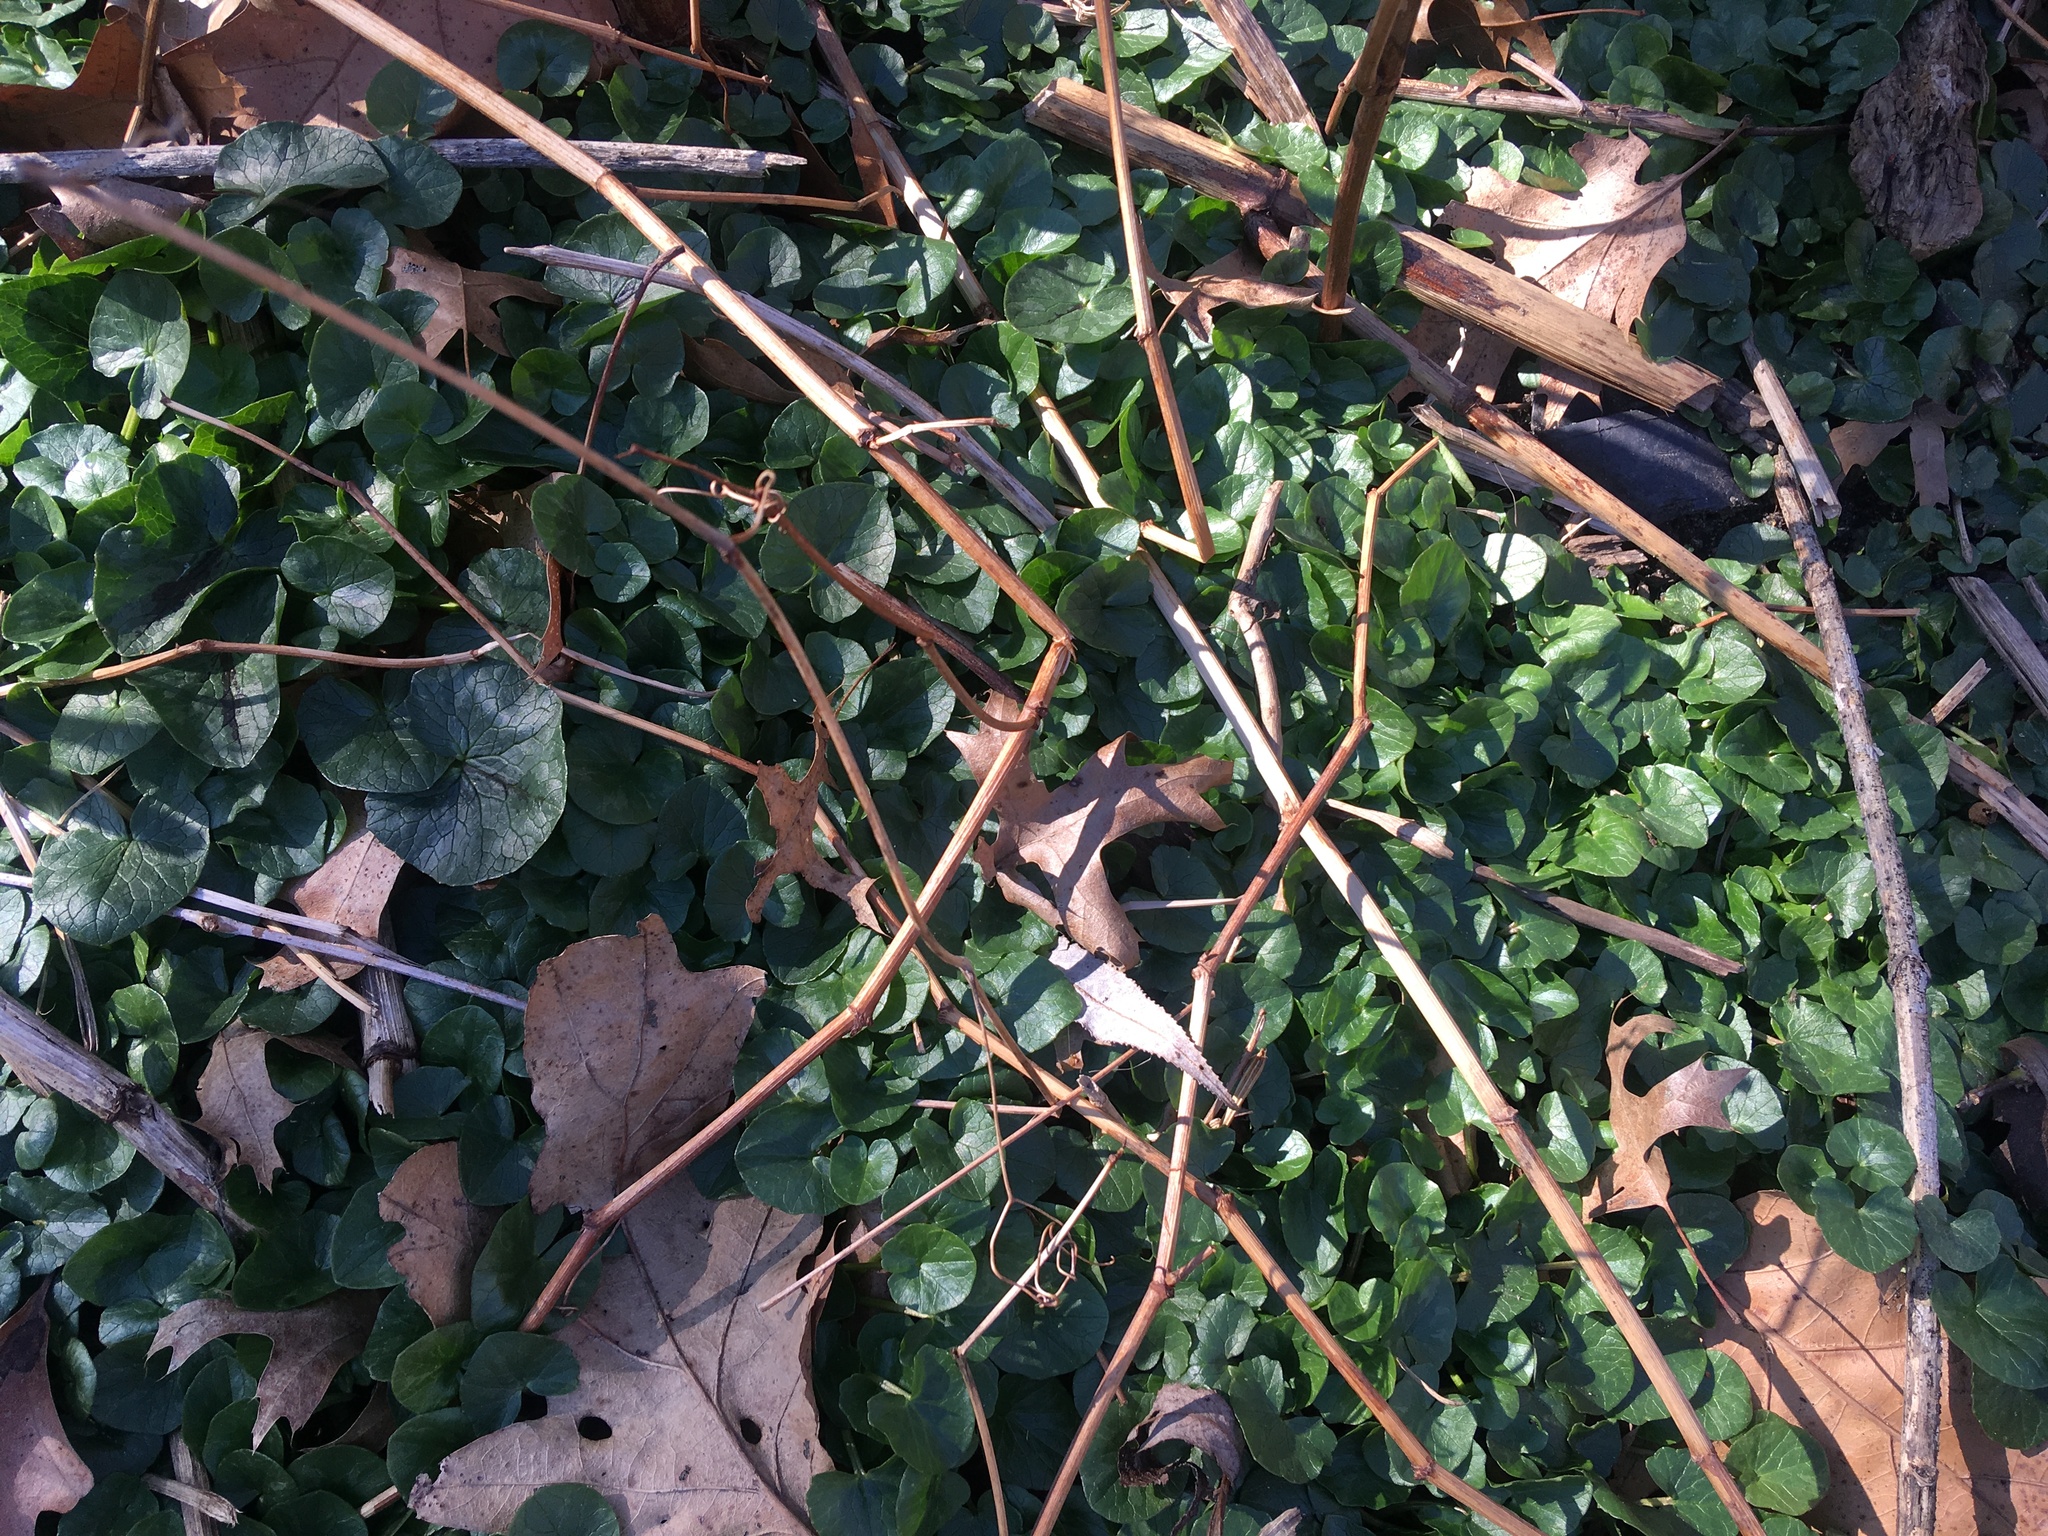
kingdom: Plantae
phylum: Tracheophyta
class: Magnoliopsida
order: Ranunculales
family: Ranunculaceae
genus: Ficaria
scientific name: Ficaria verna
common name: Lesser celandine
